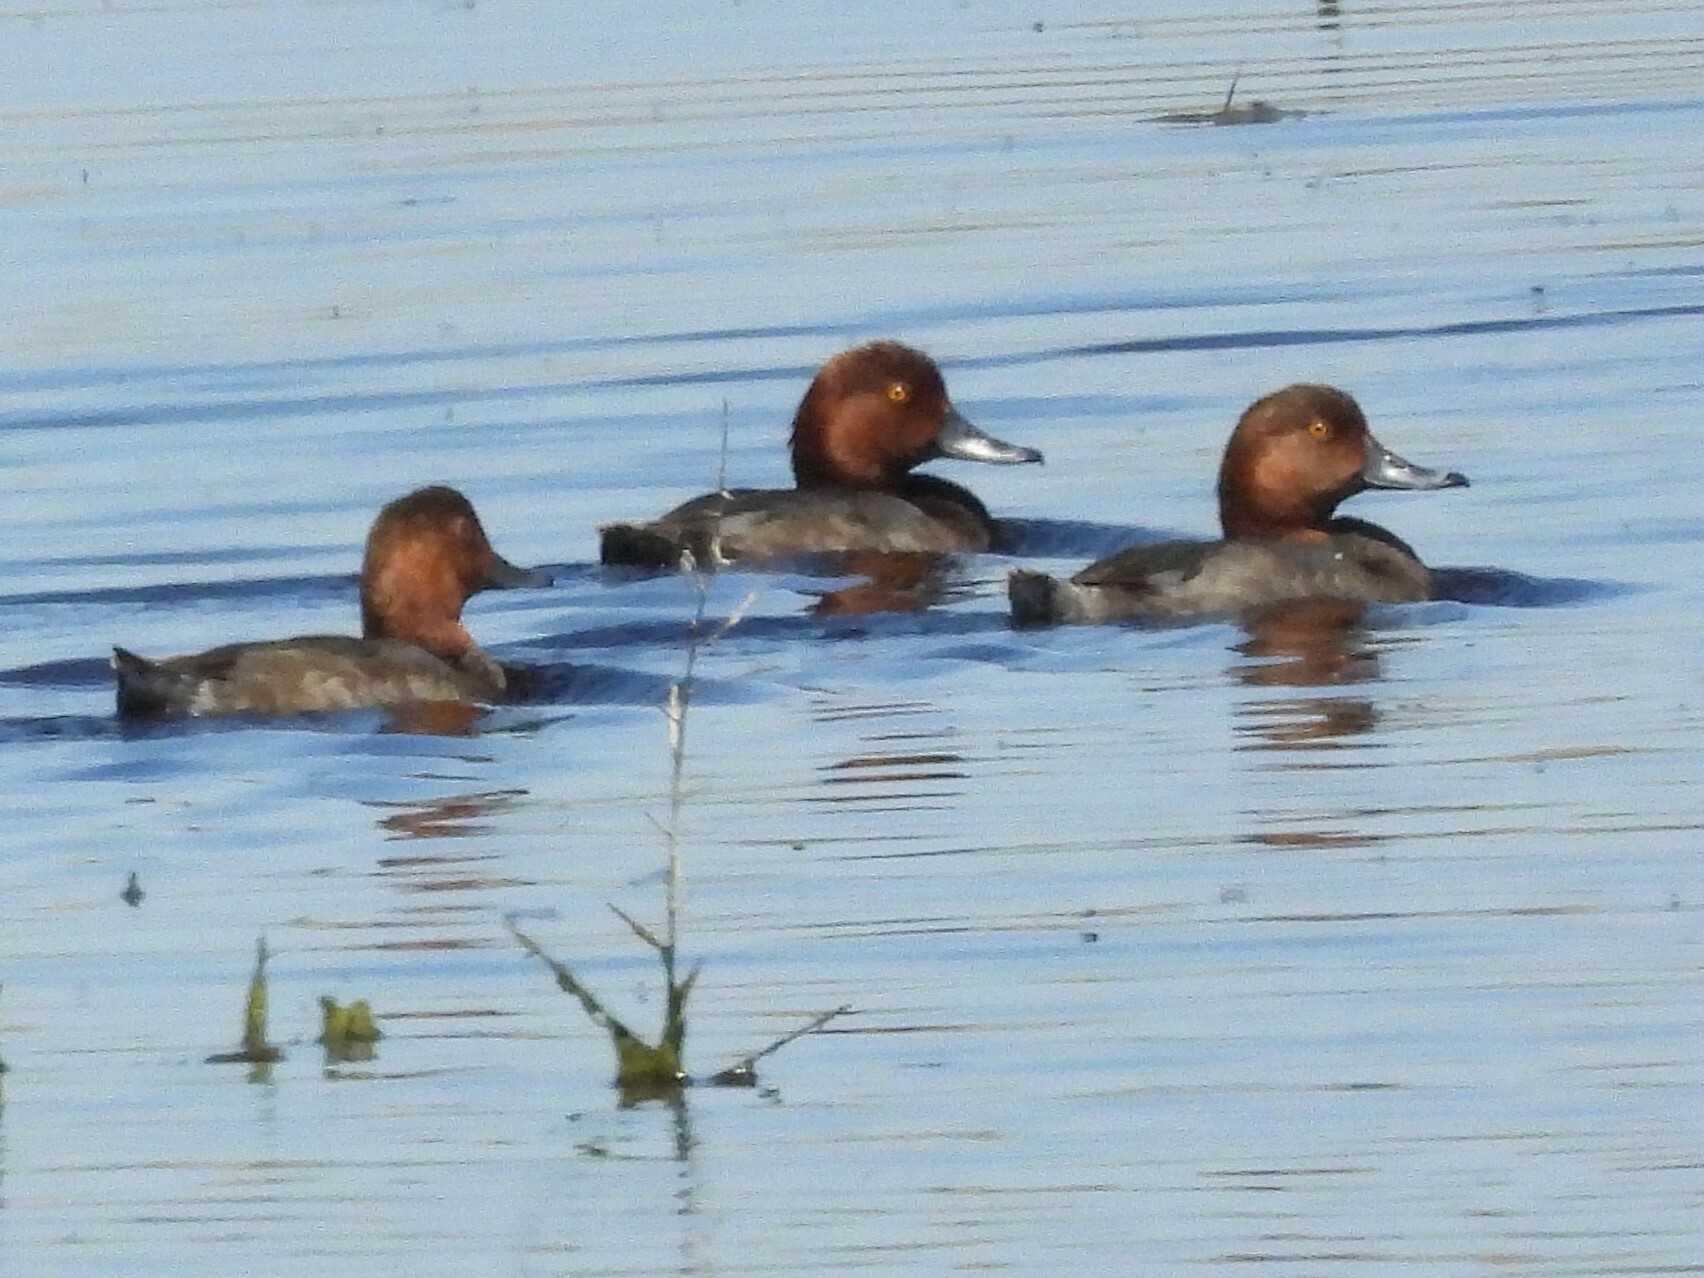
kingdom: Animalia
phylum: Chordata
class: Aves
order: Anseriformes
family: Anatidae
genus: Aythya
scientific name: Aythya americana
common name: Redhead
